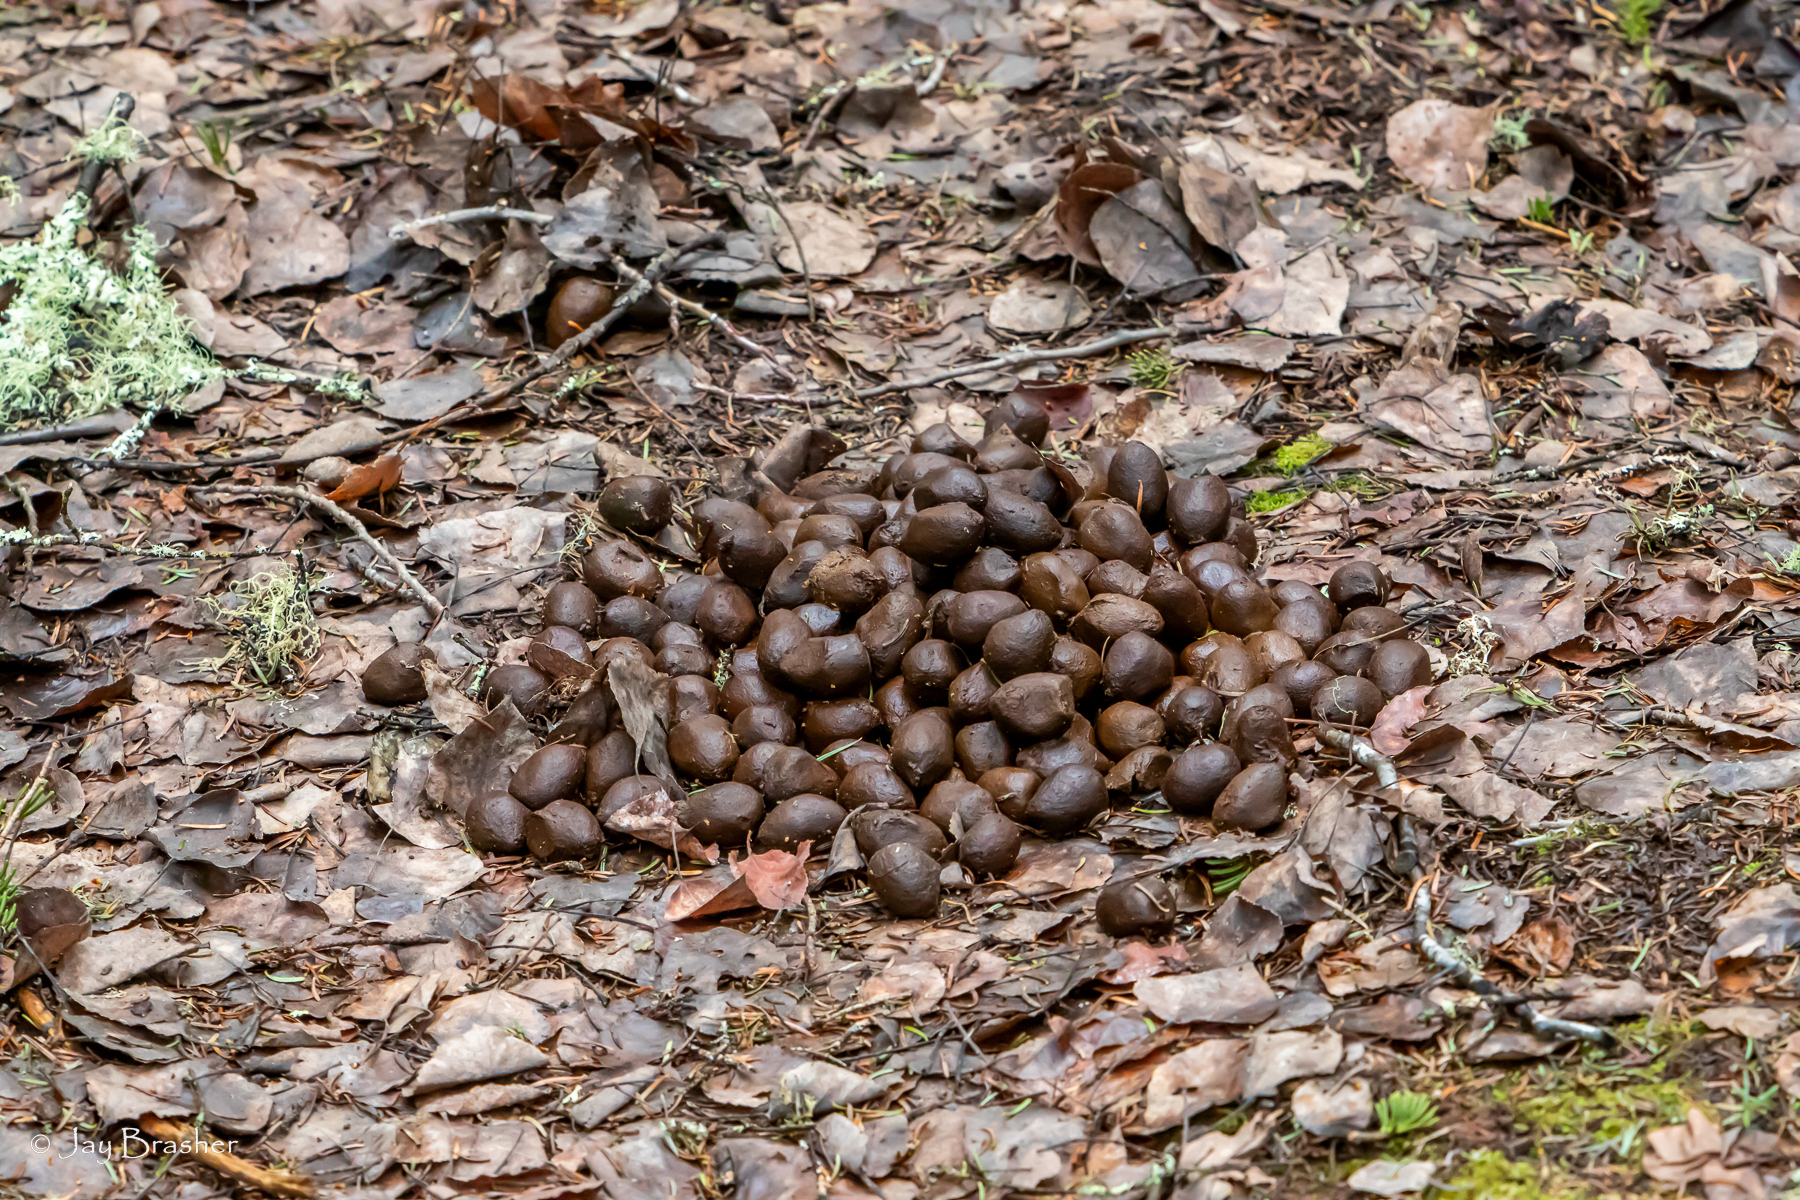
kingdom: Animalia
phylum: Chordata
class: Mammalia
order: Artiodactyla
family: Cervidae
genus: Alces
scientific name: Alces alces
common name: Moose
